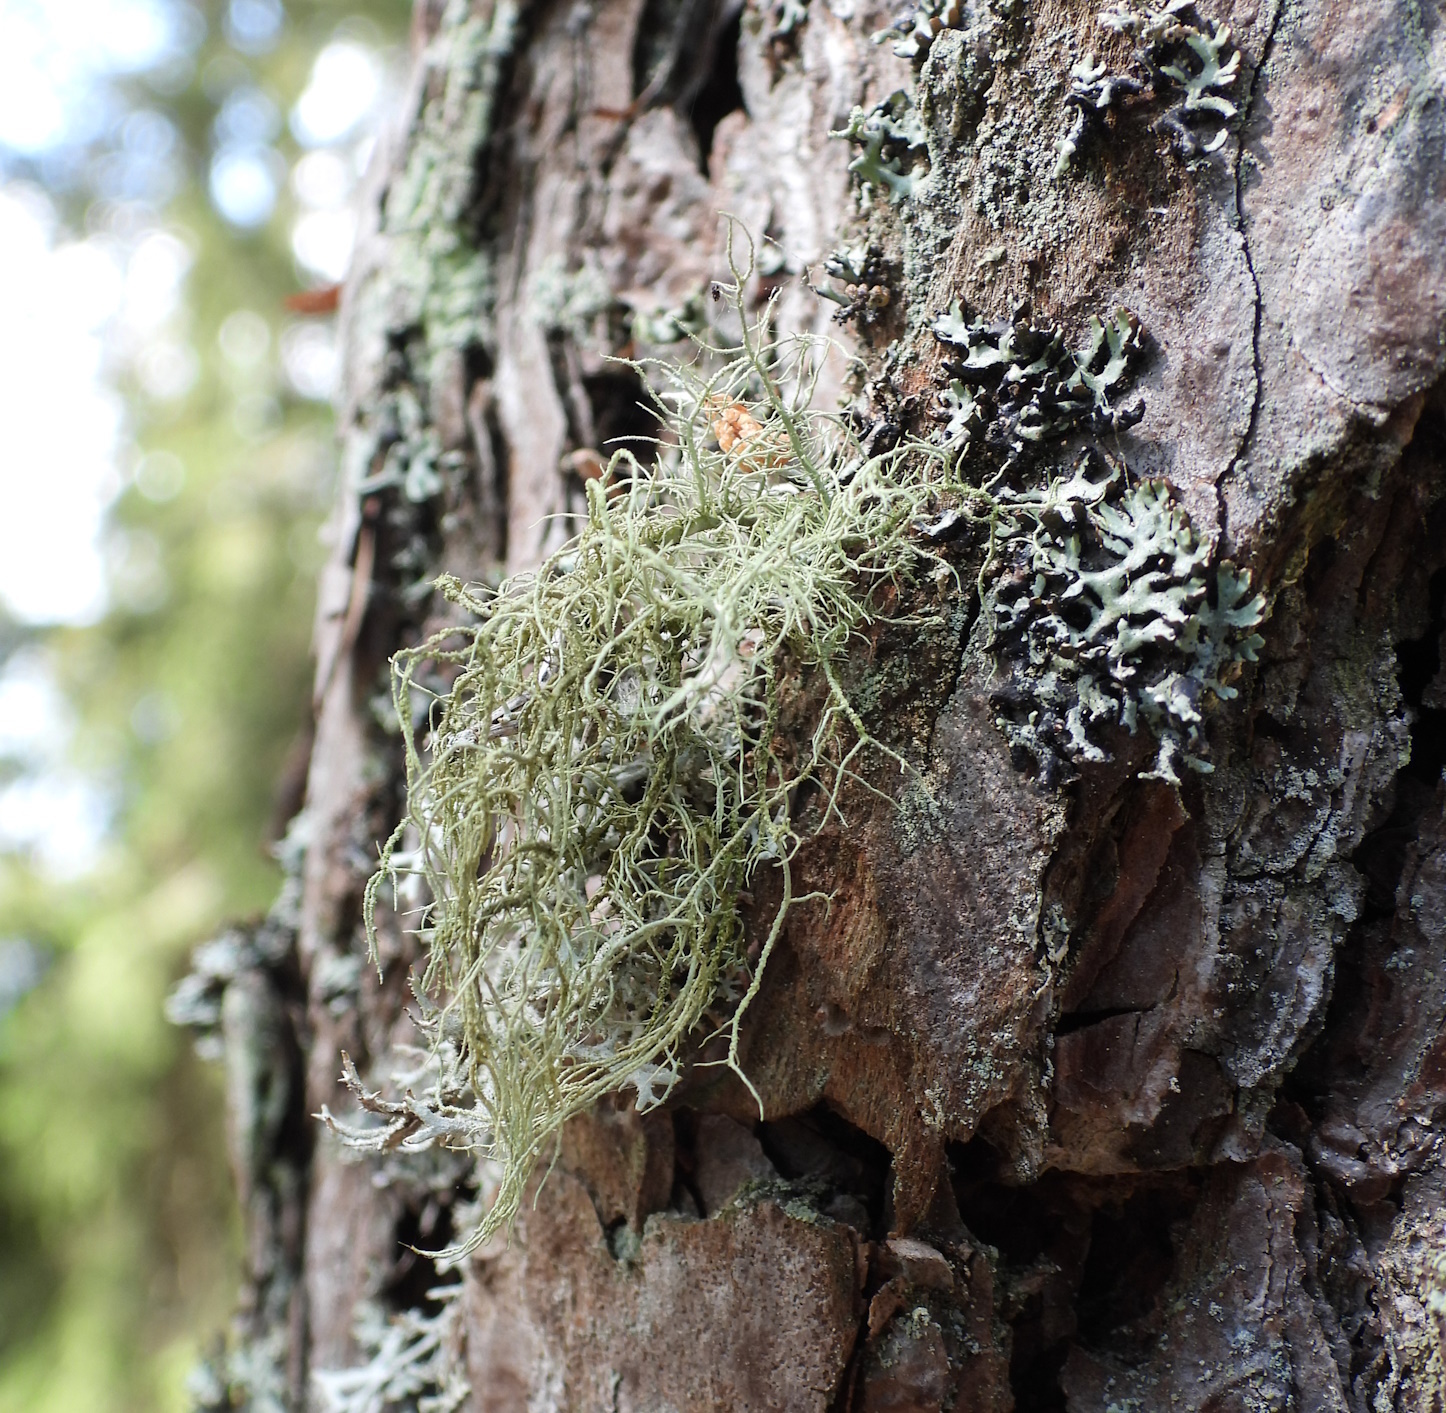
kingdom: Fungi
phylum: Ascomycota
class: Lecanoromycetes
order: Lecanorales
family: Parmeliaceae
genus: Usnea
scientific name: Usnea hirta
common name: Bristly beard lichen
